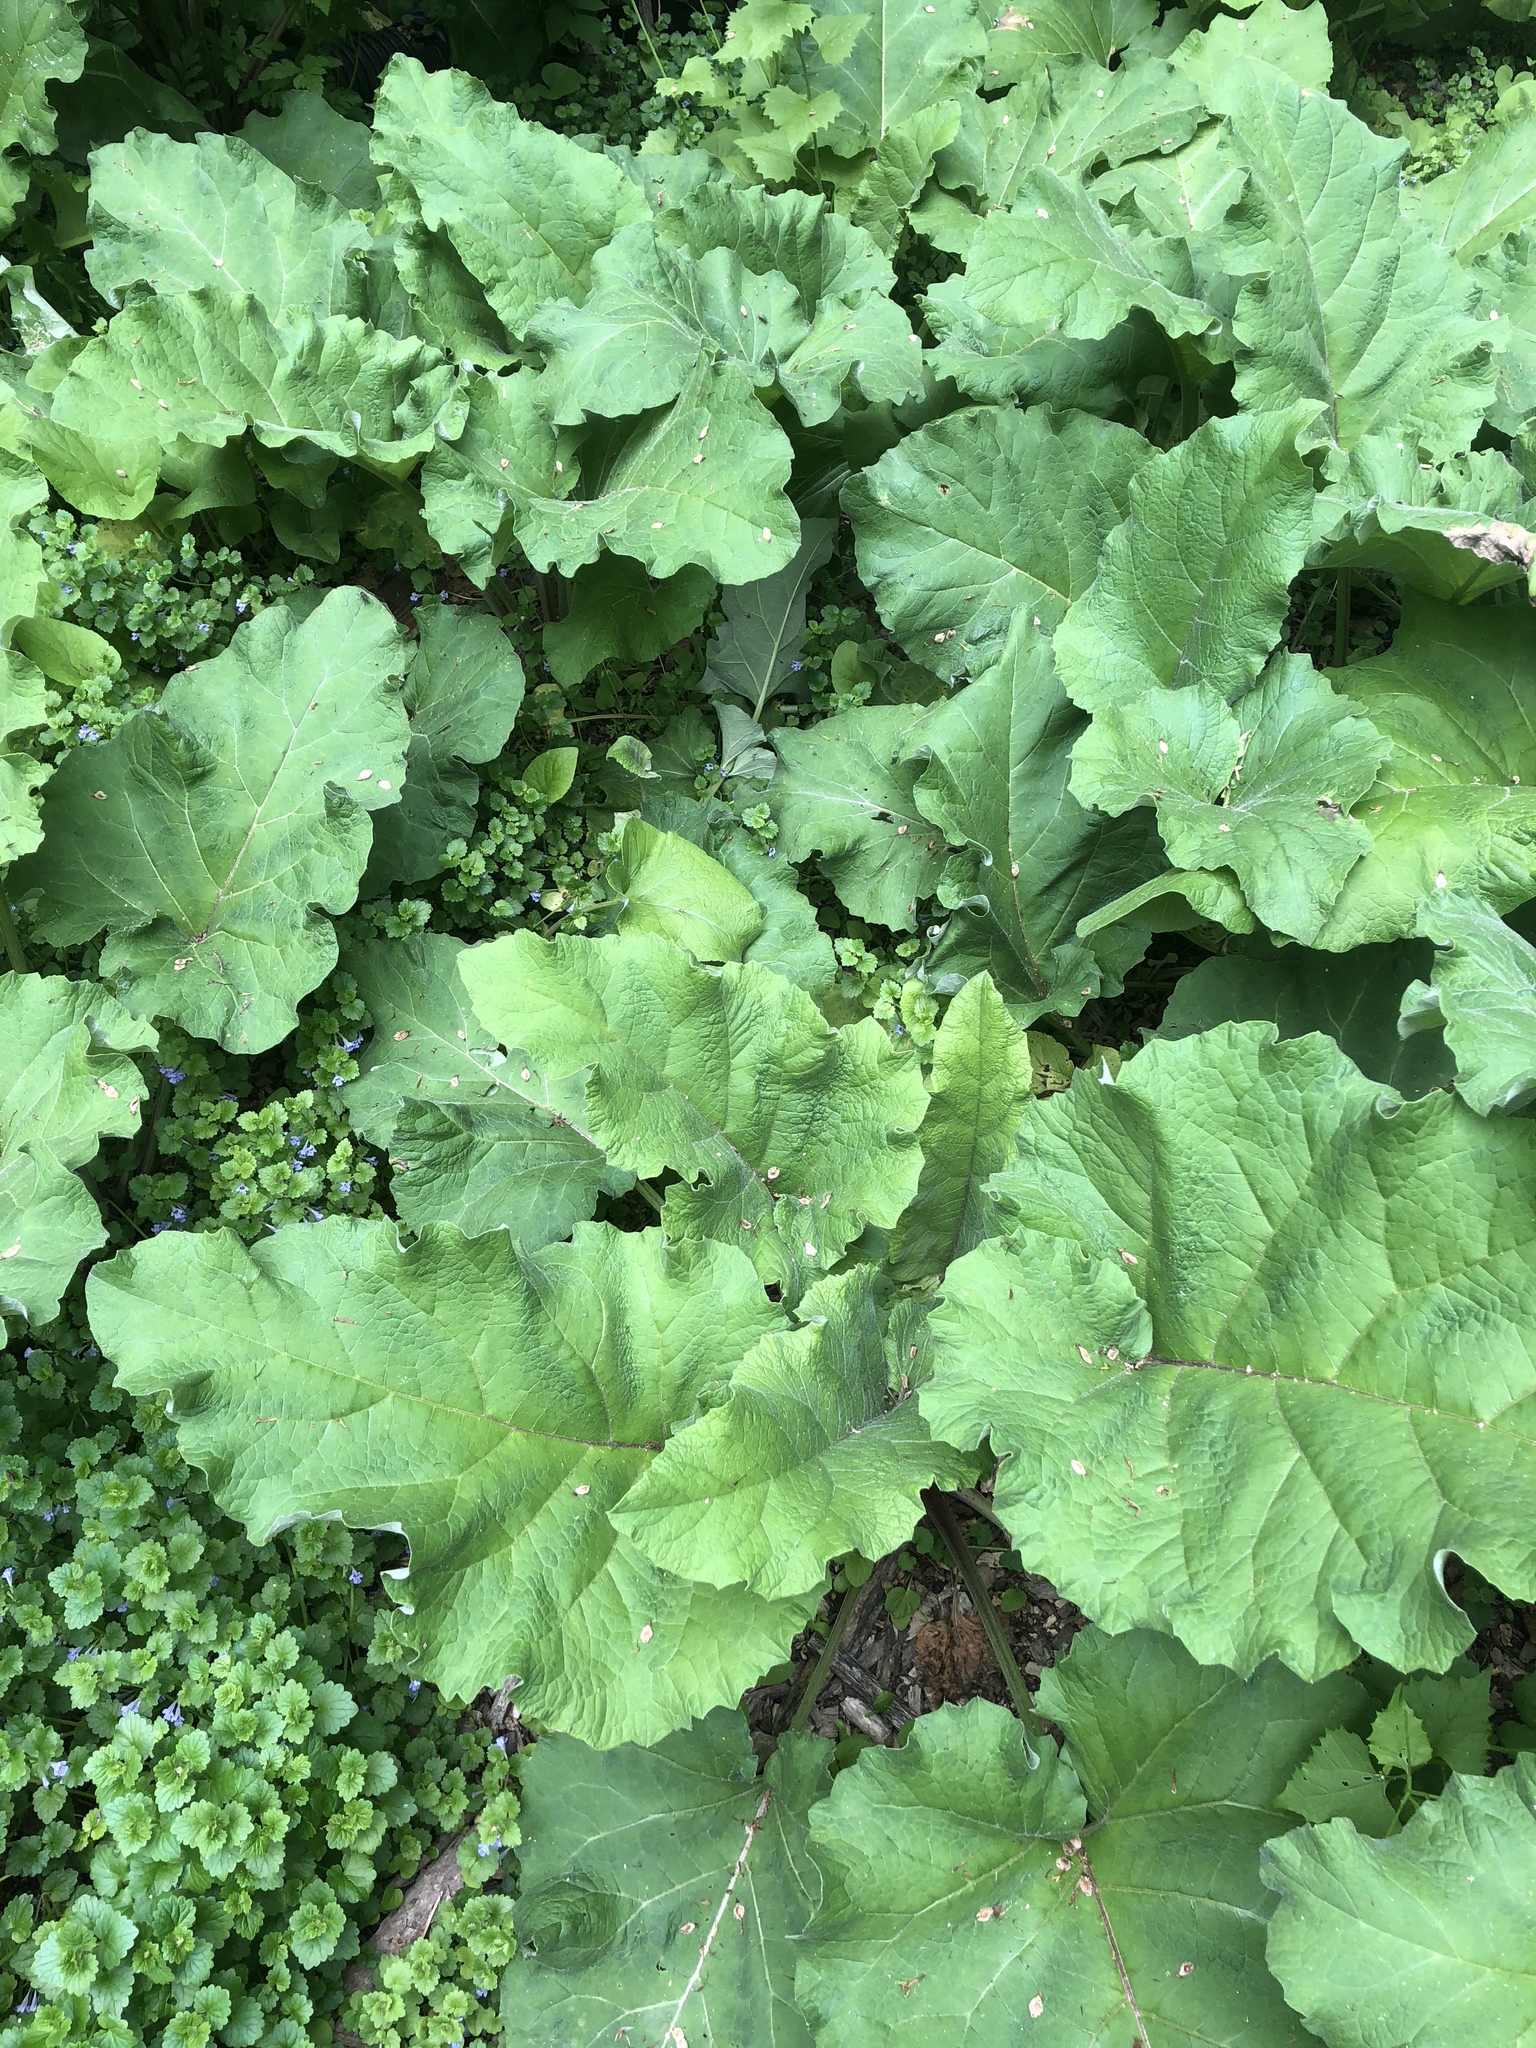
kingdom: Plantae
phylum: Tracheophyta
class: Magnoliopsida
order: Asterales
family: Asteraceae
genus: Arctium
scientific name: Arctium
